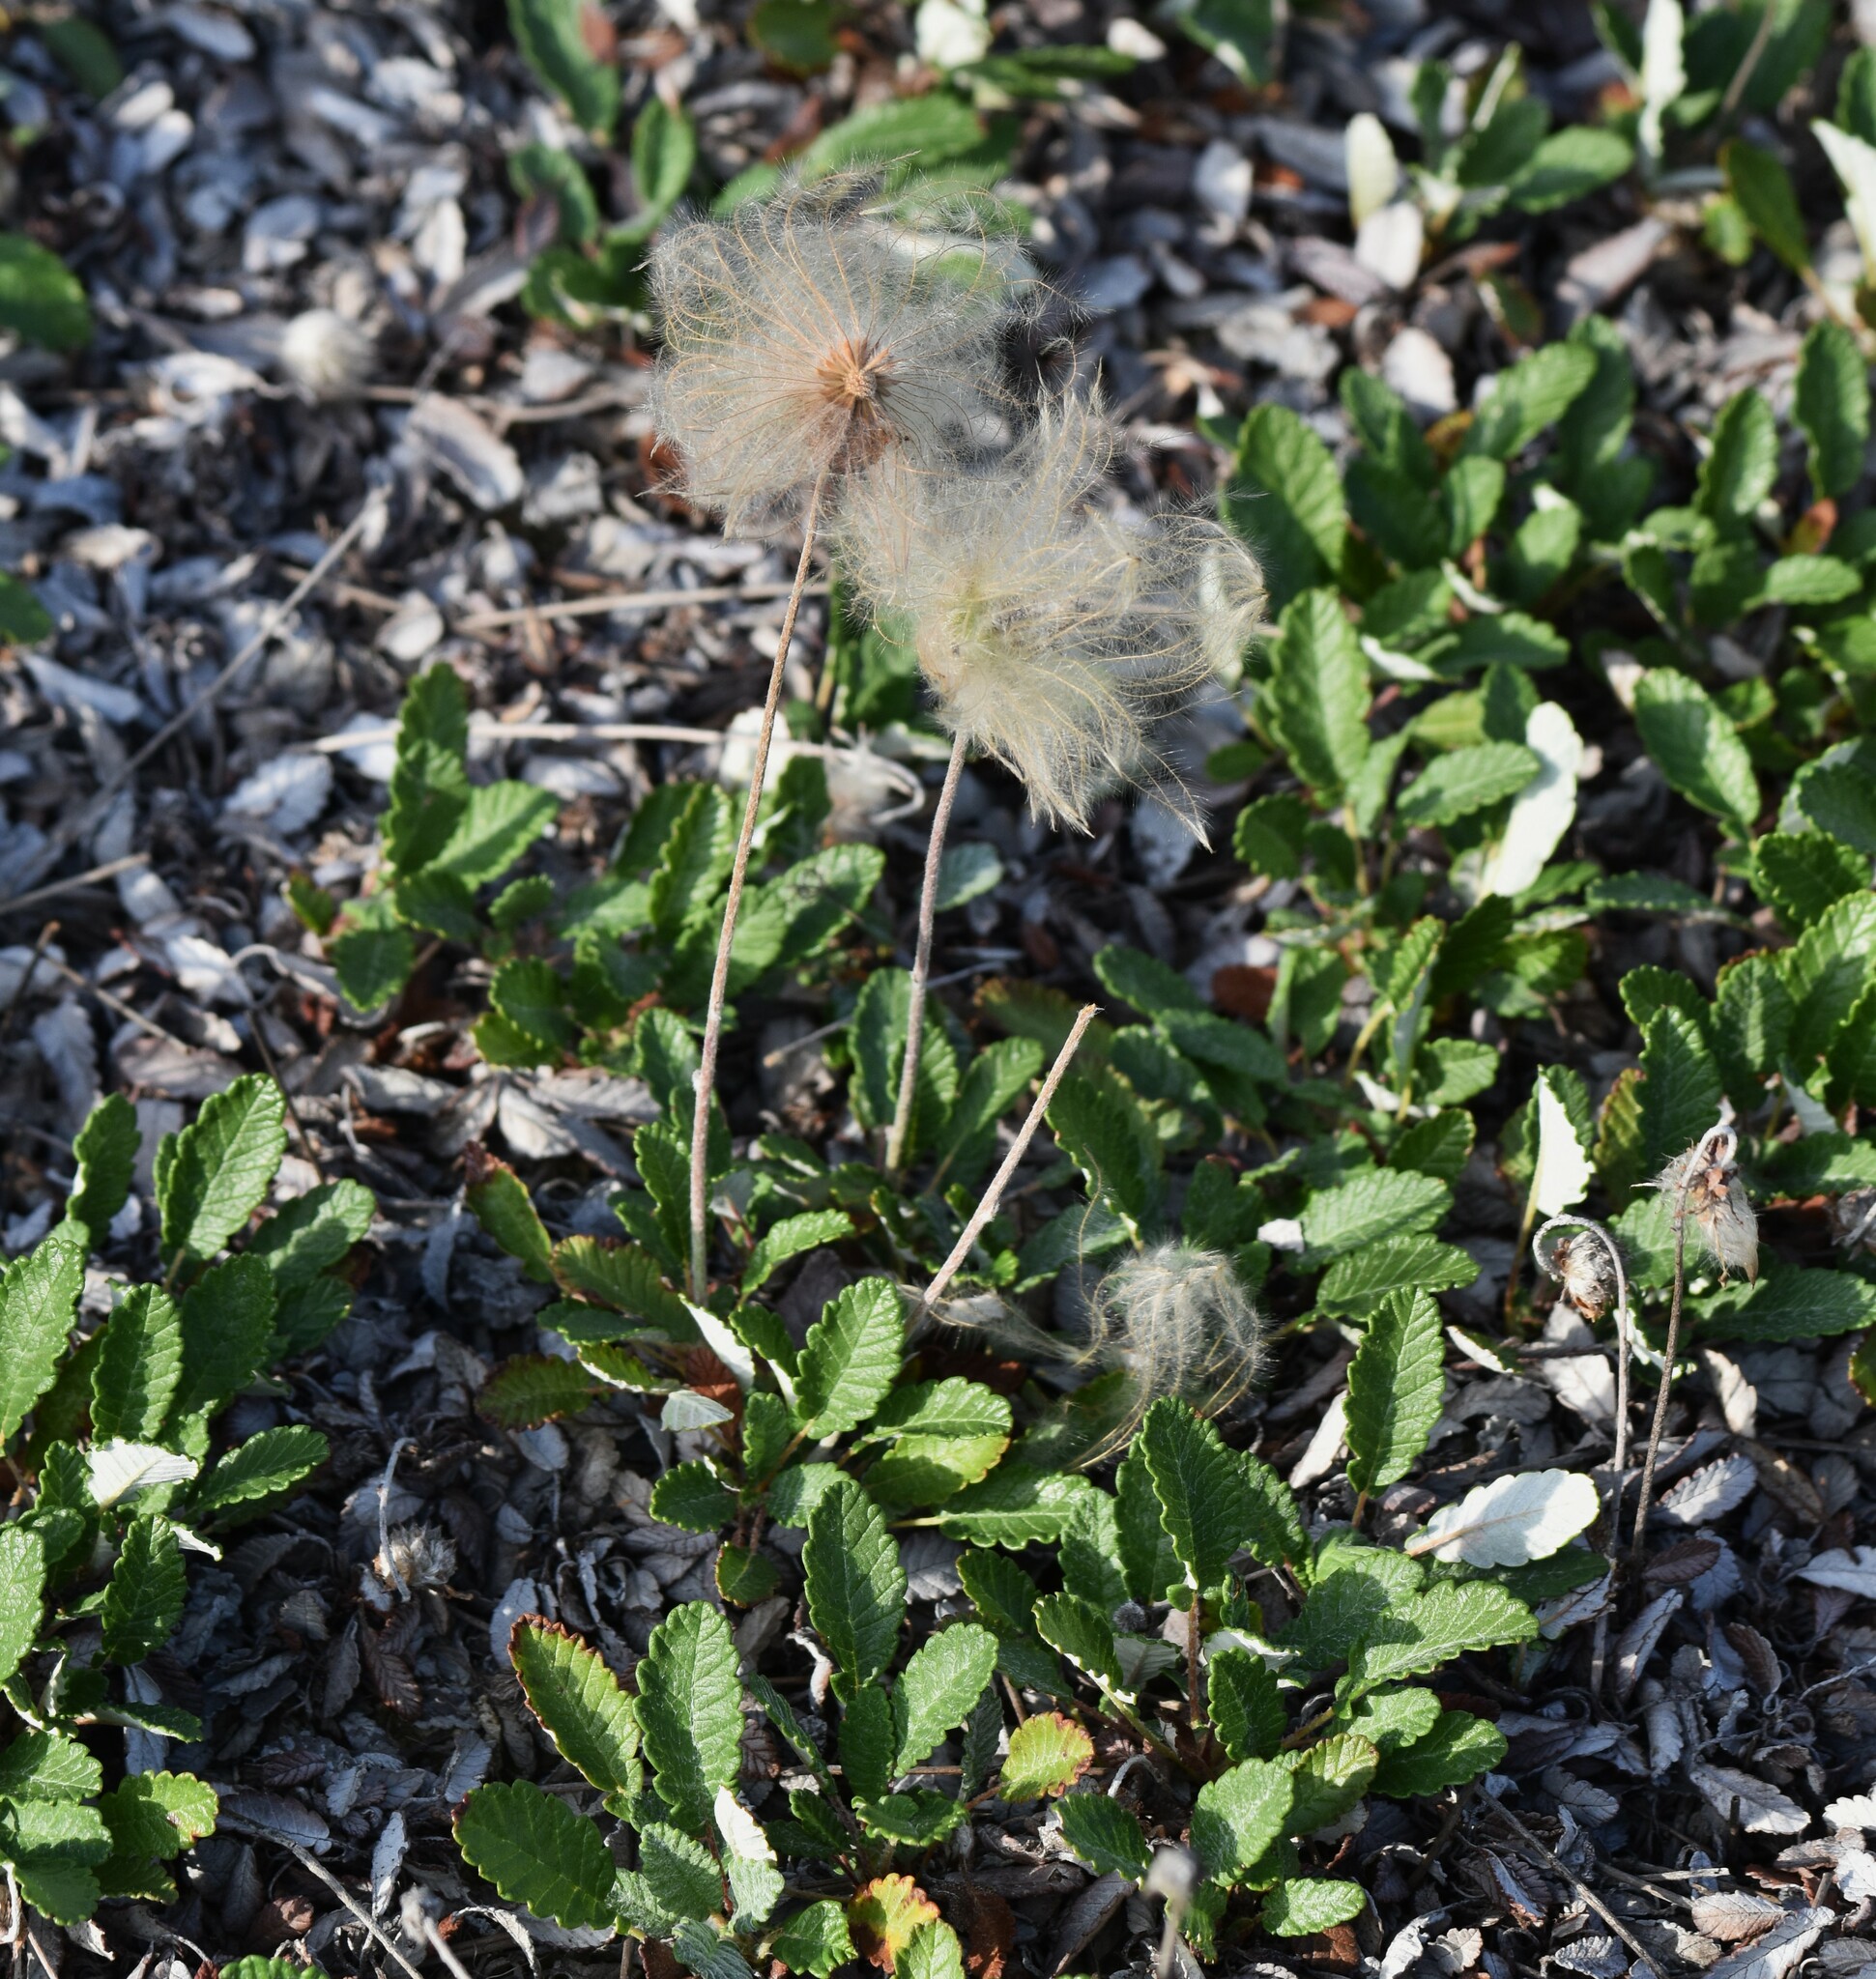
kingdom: Plantae
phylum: Tracheophyta
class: Magnoliopsida
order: Rosales
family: Rosaceae
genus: Dryas
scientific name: Dryas drummondii
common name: Drummond's dryad
